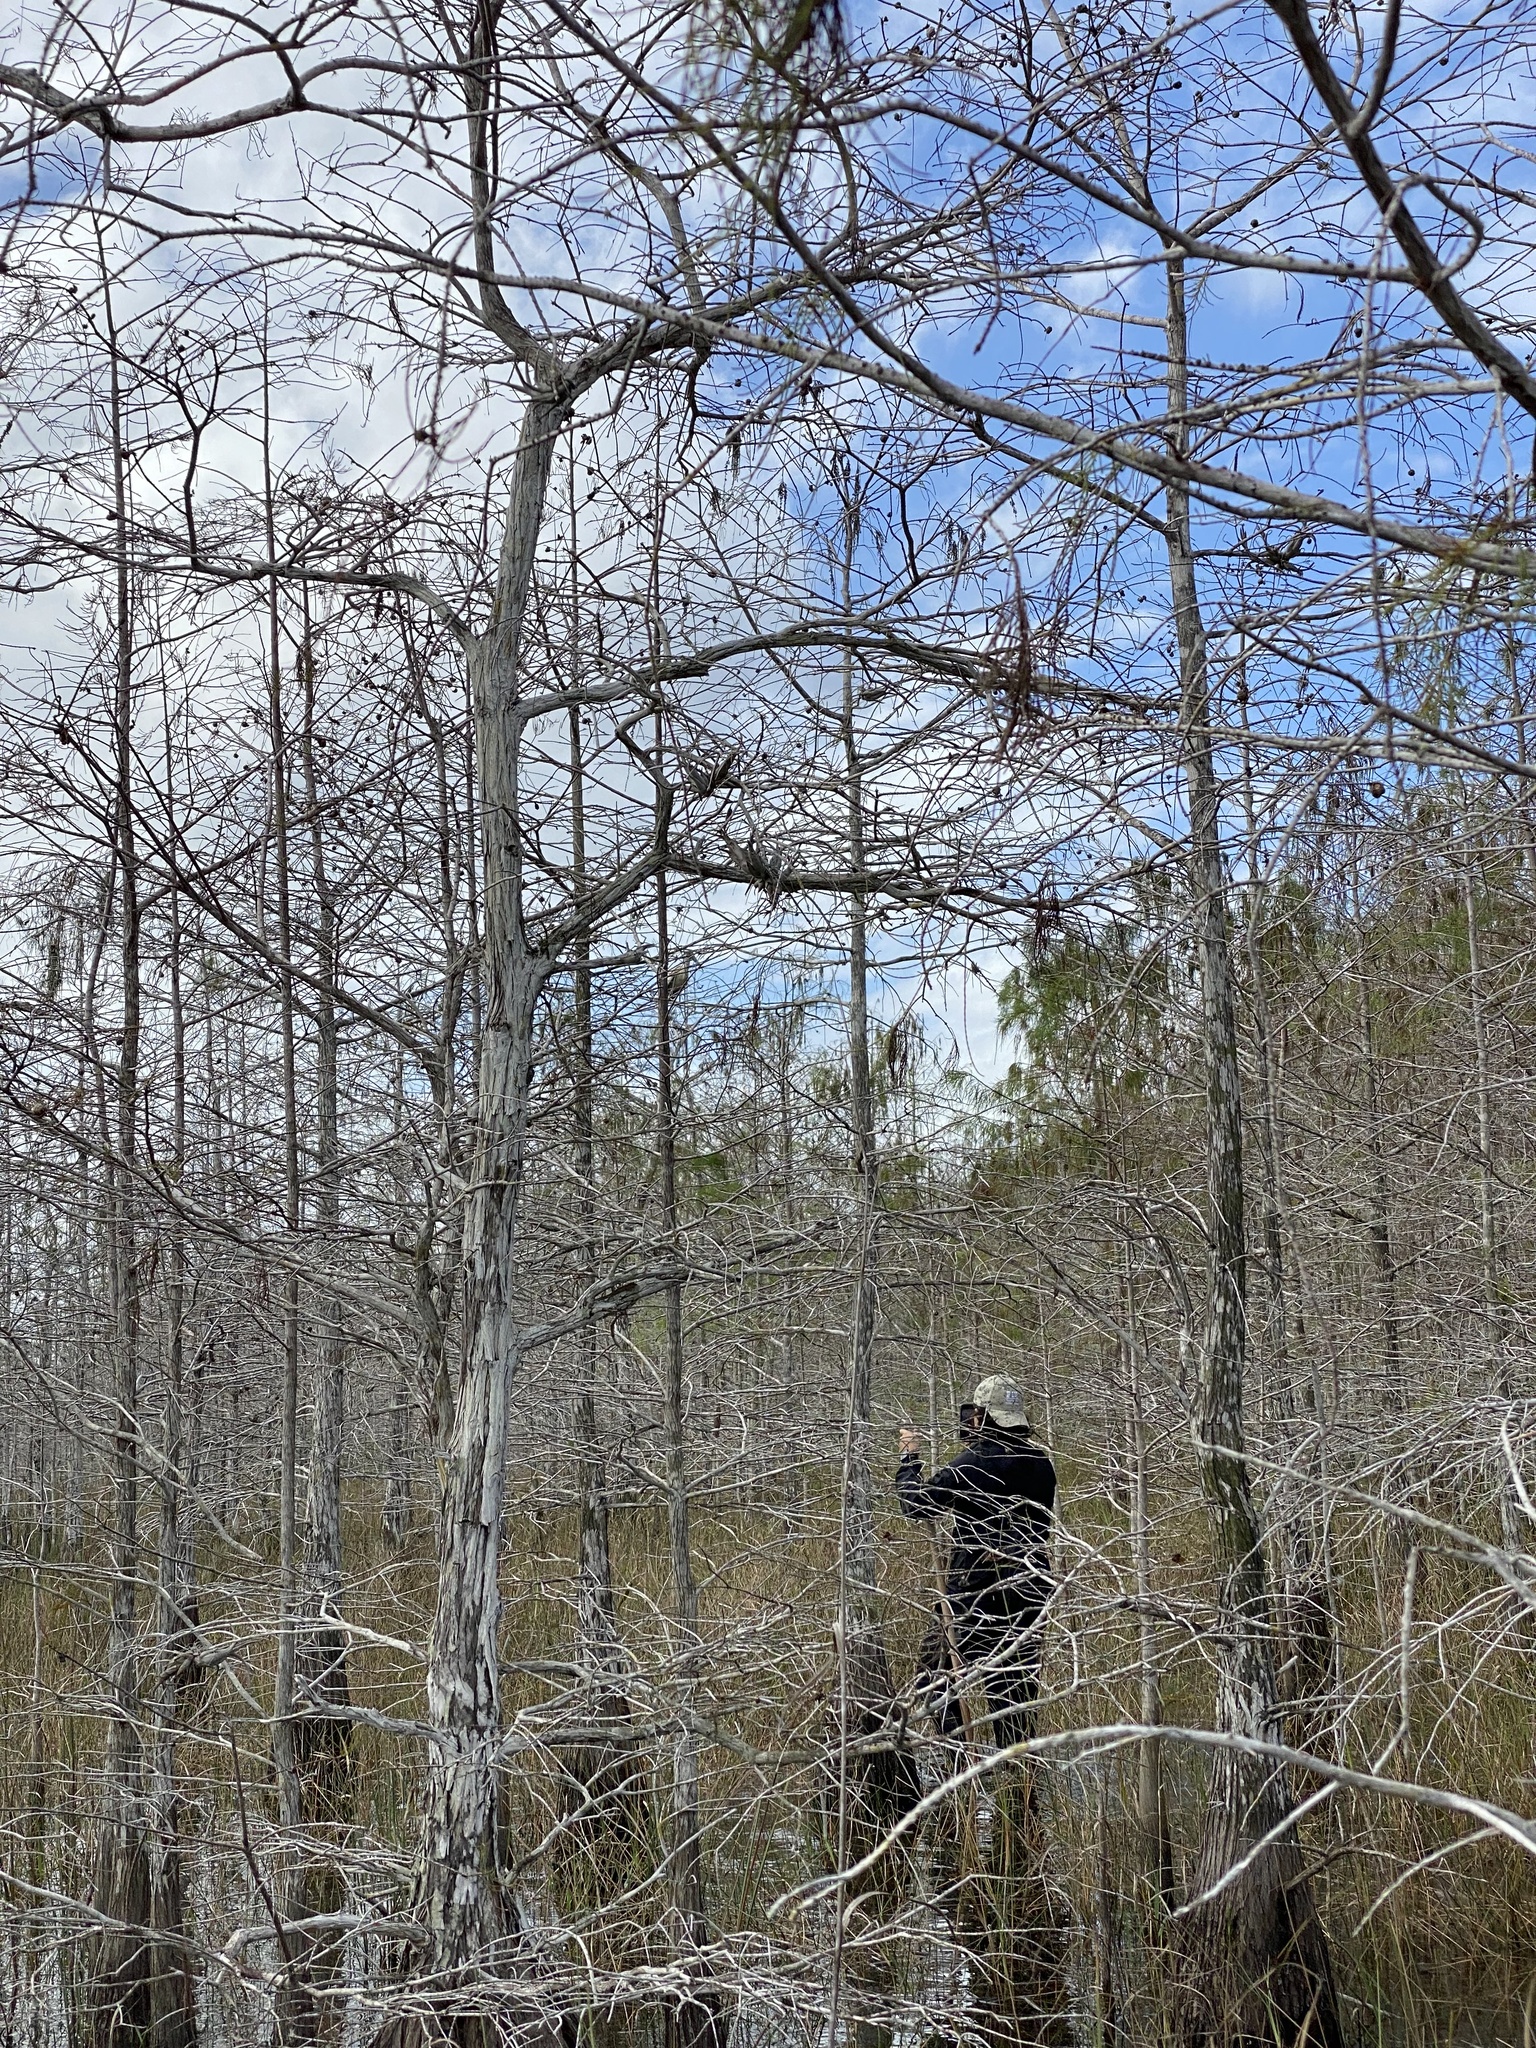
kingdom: Animalia
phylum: Chordata
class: Aves
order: Ciconiiformes
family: Ciconiidae
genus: Mycteria
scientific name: Mycteria americana
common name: Wood stork
